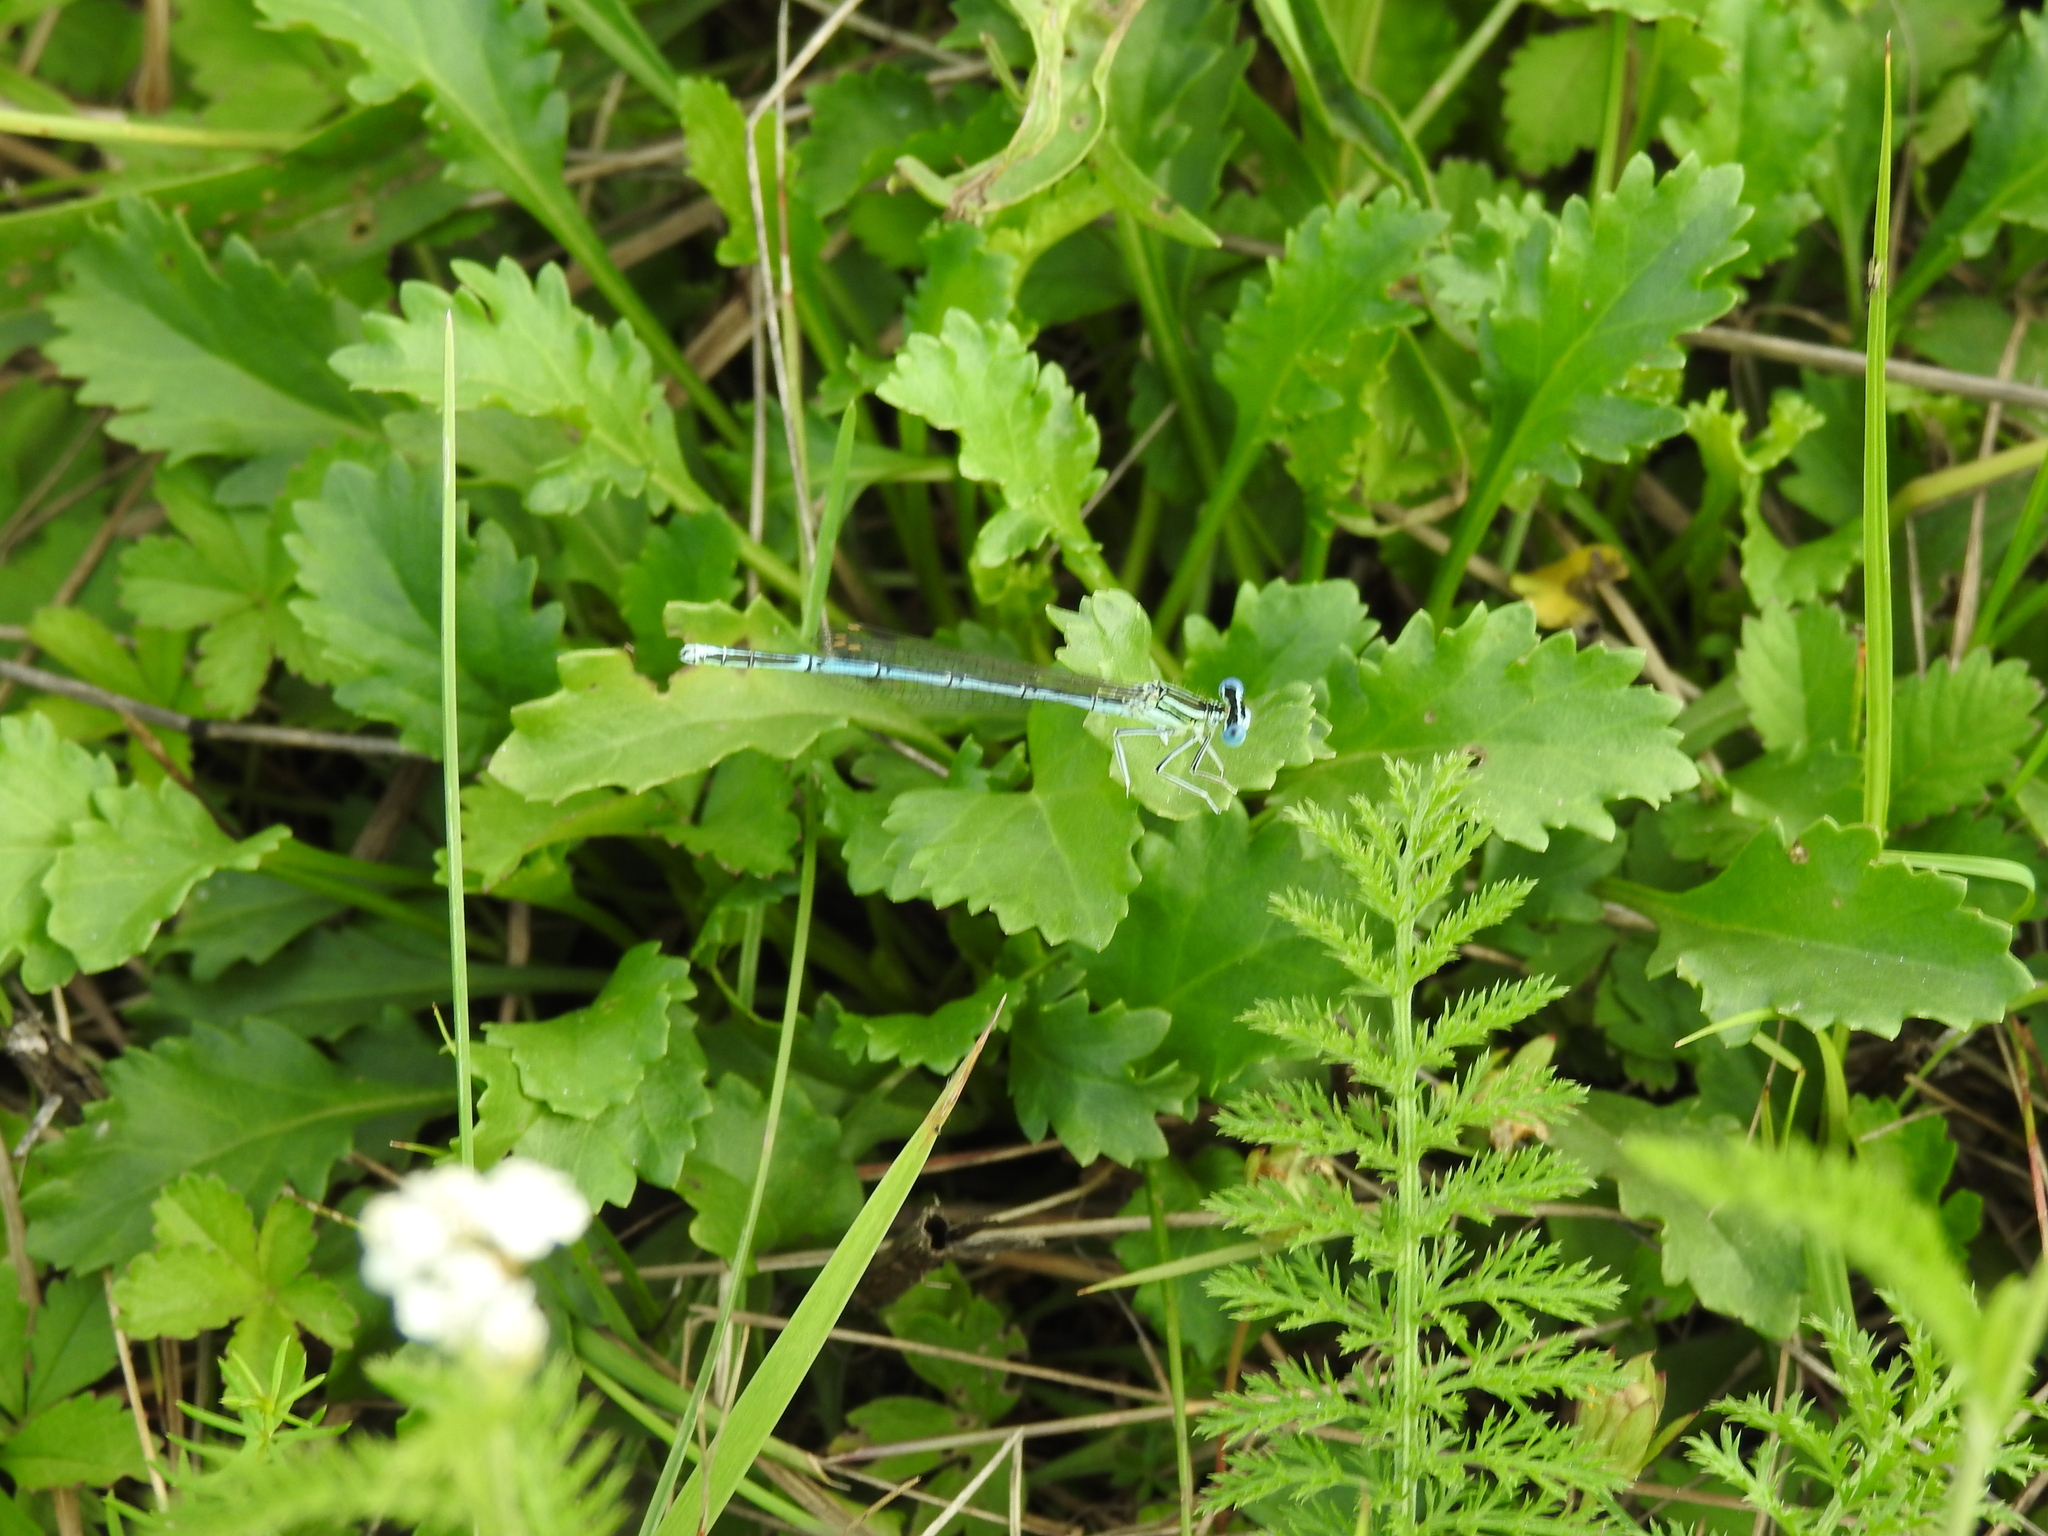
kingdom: Animalia
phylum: Arthropoda
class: Insecta
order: Odonata
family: Platycnemididae
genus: Platycnemis
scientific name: Platycnemis pennipes
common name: White-legged damselfly
